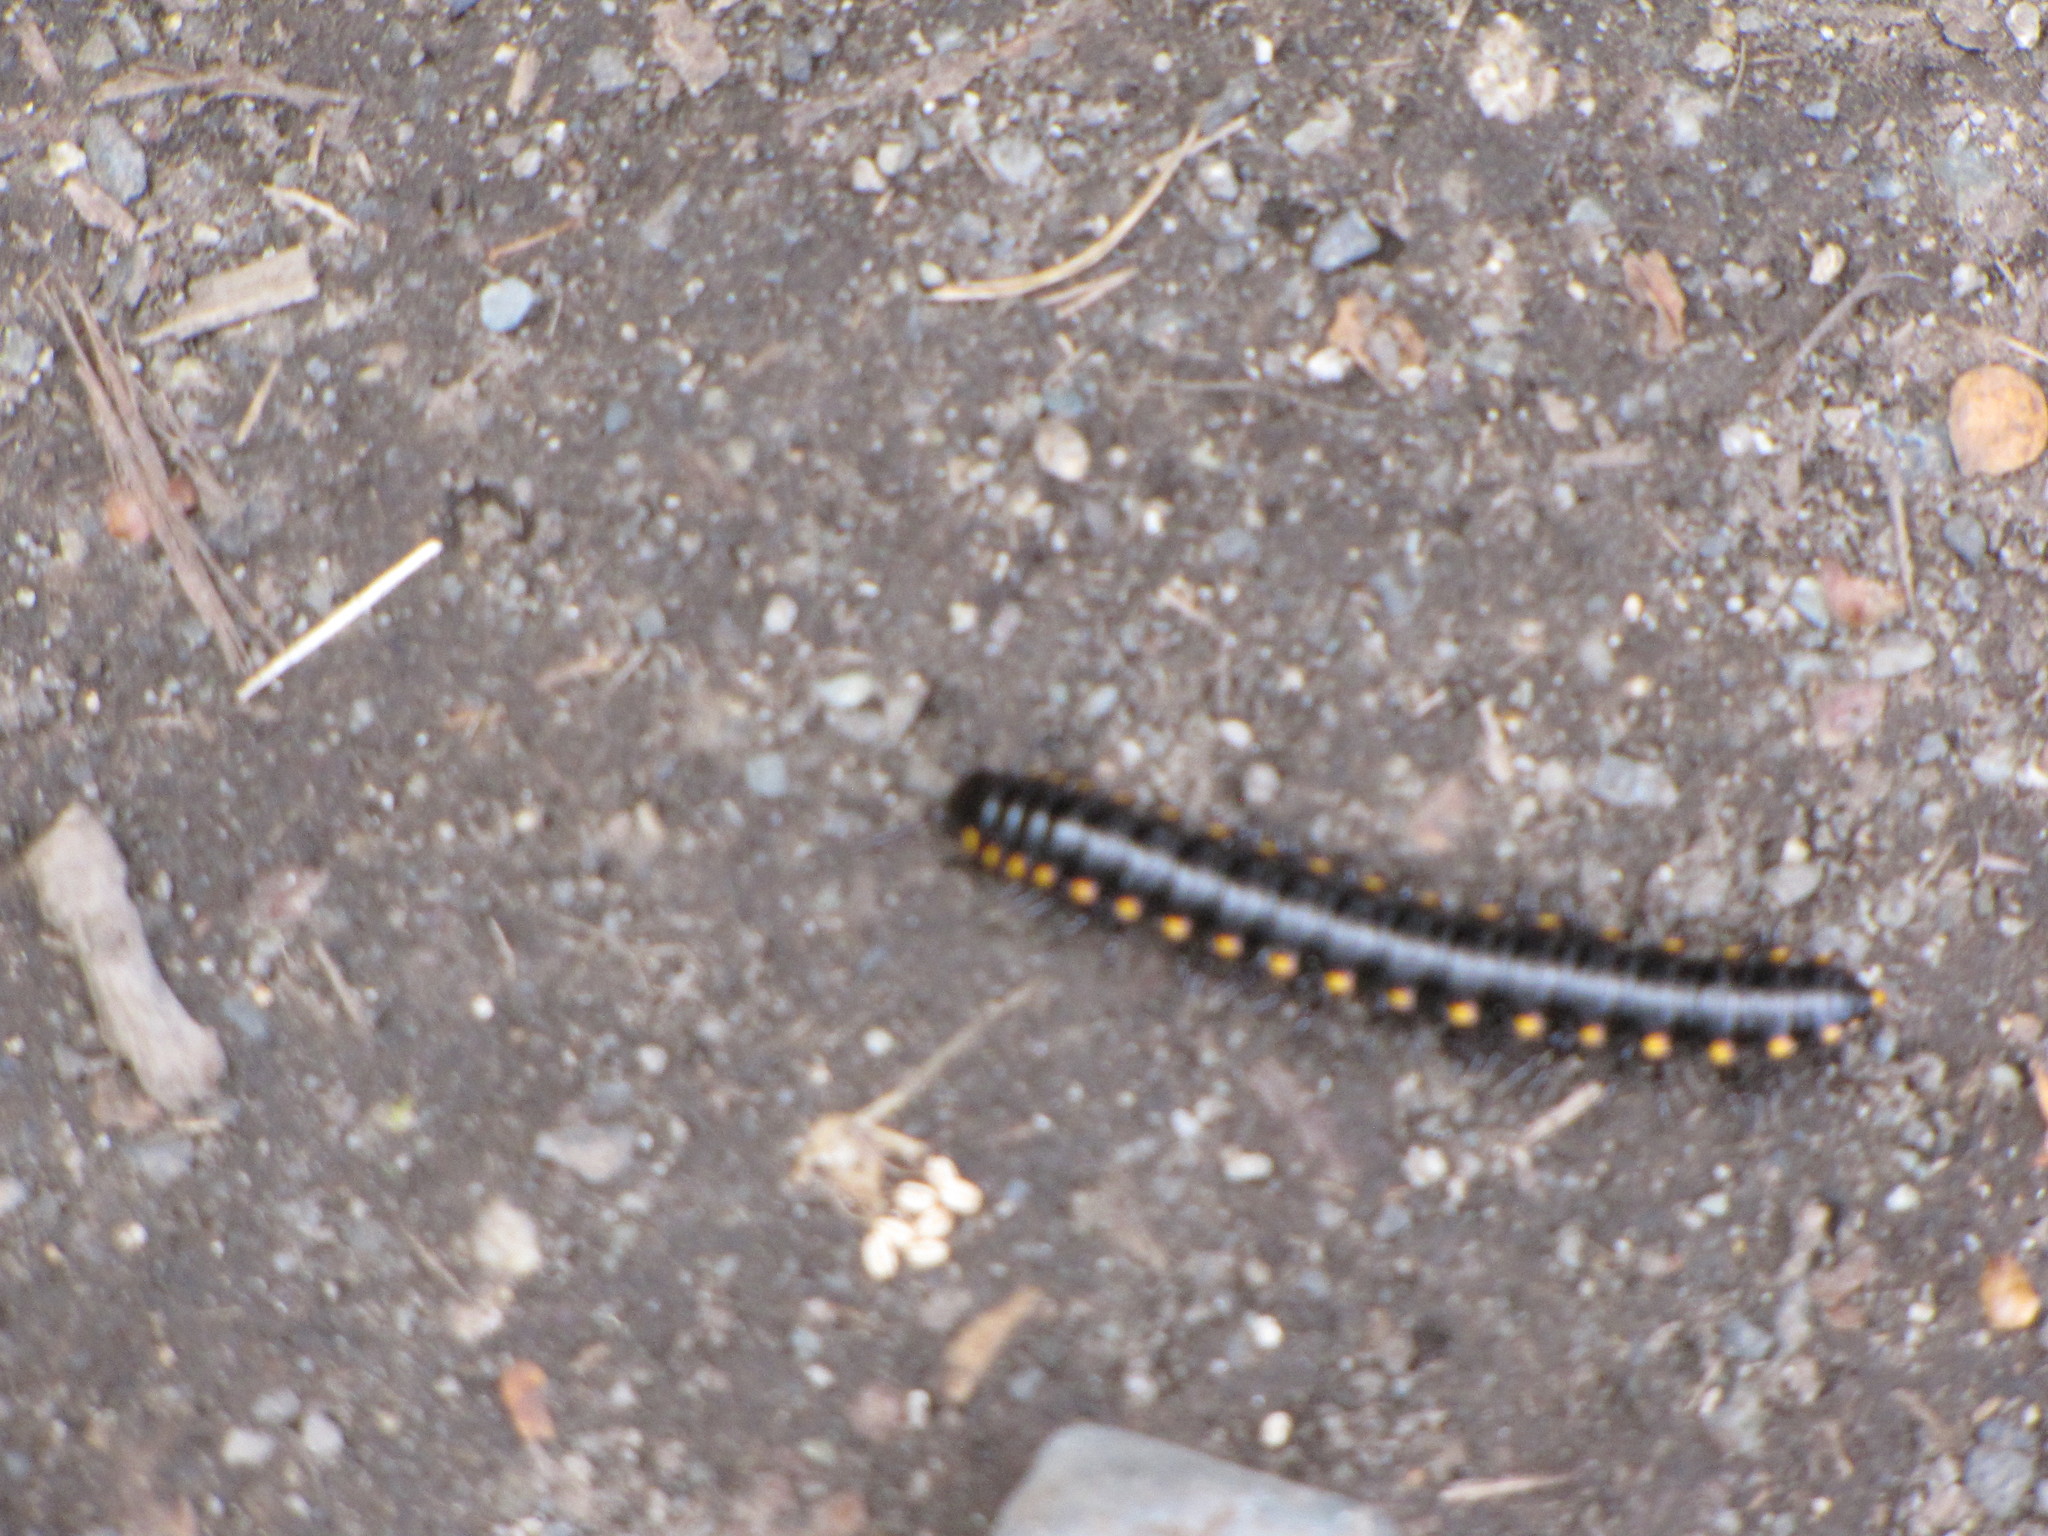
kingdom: Animalia
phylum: Arthropoda
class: Diplopoda
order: Polydesmida
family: Xystodesmidae
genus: Harpaphe
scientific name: Harpaphe haydeniana
